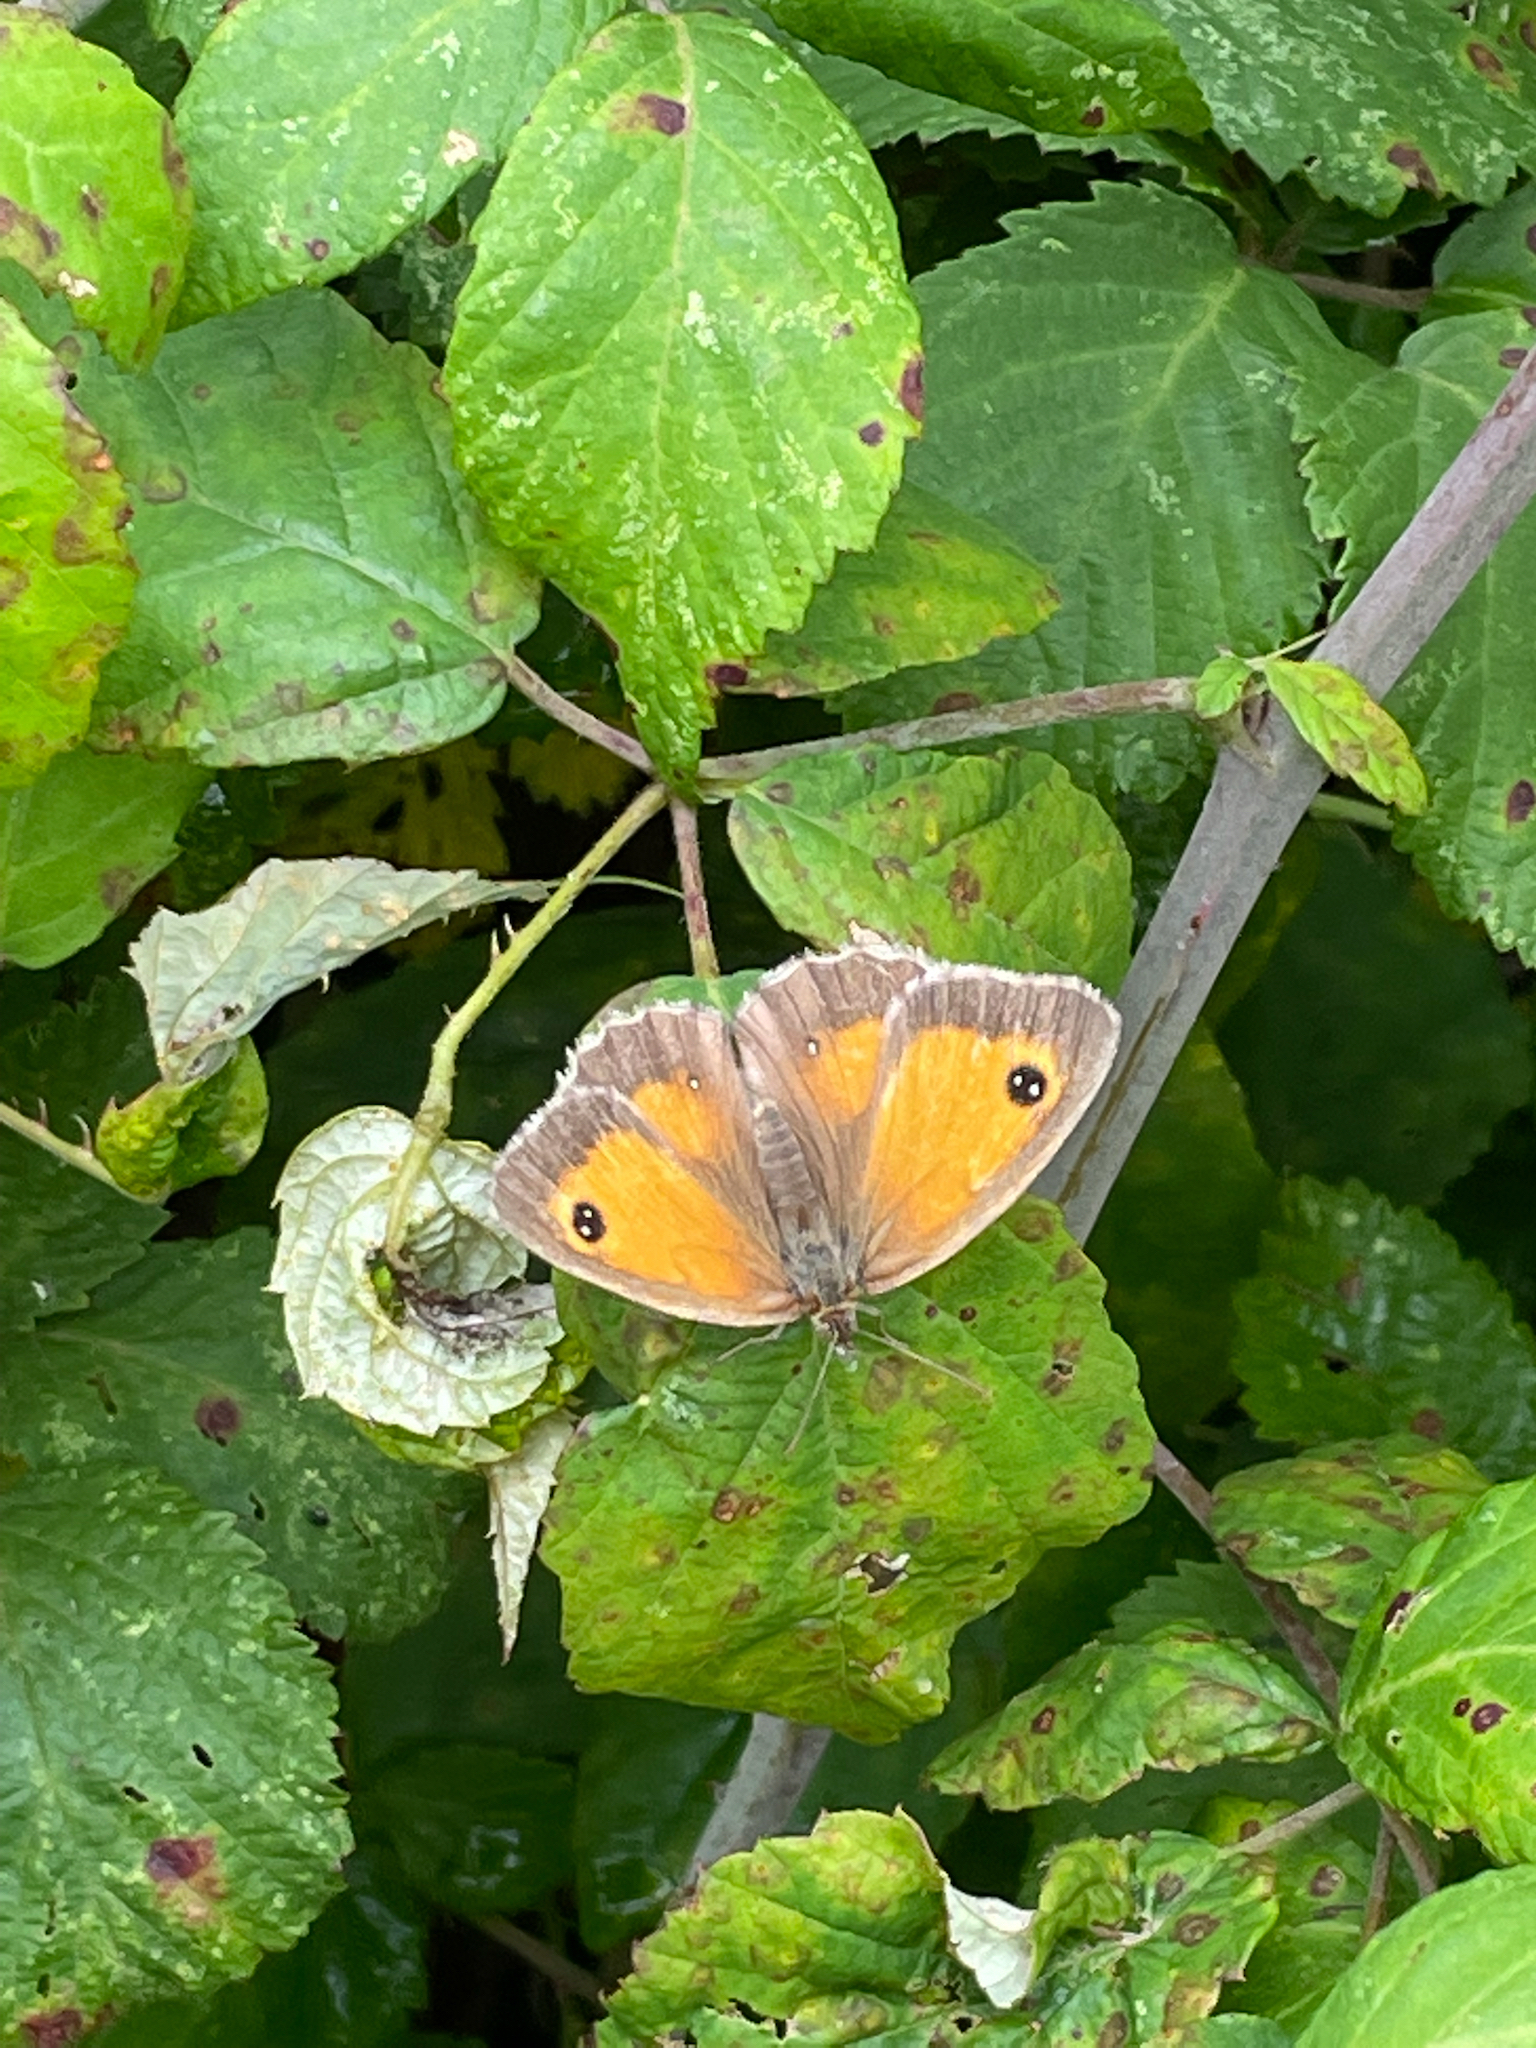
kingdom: Animalia
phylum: Arthropoda
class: Insecta
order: Lepidoptera
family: Nymphalidae
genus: Pyronia
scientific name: Pyronia tithonus
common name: Gatekeeper
